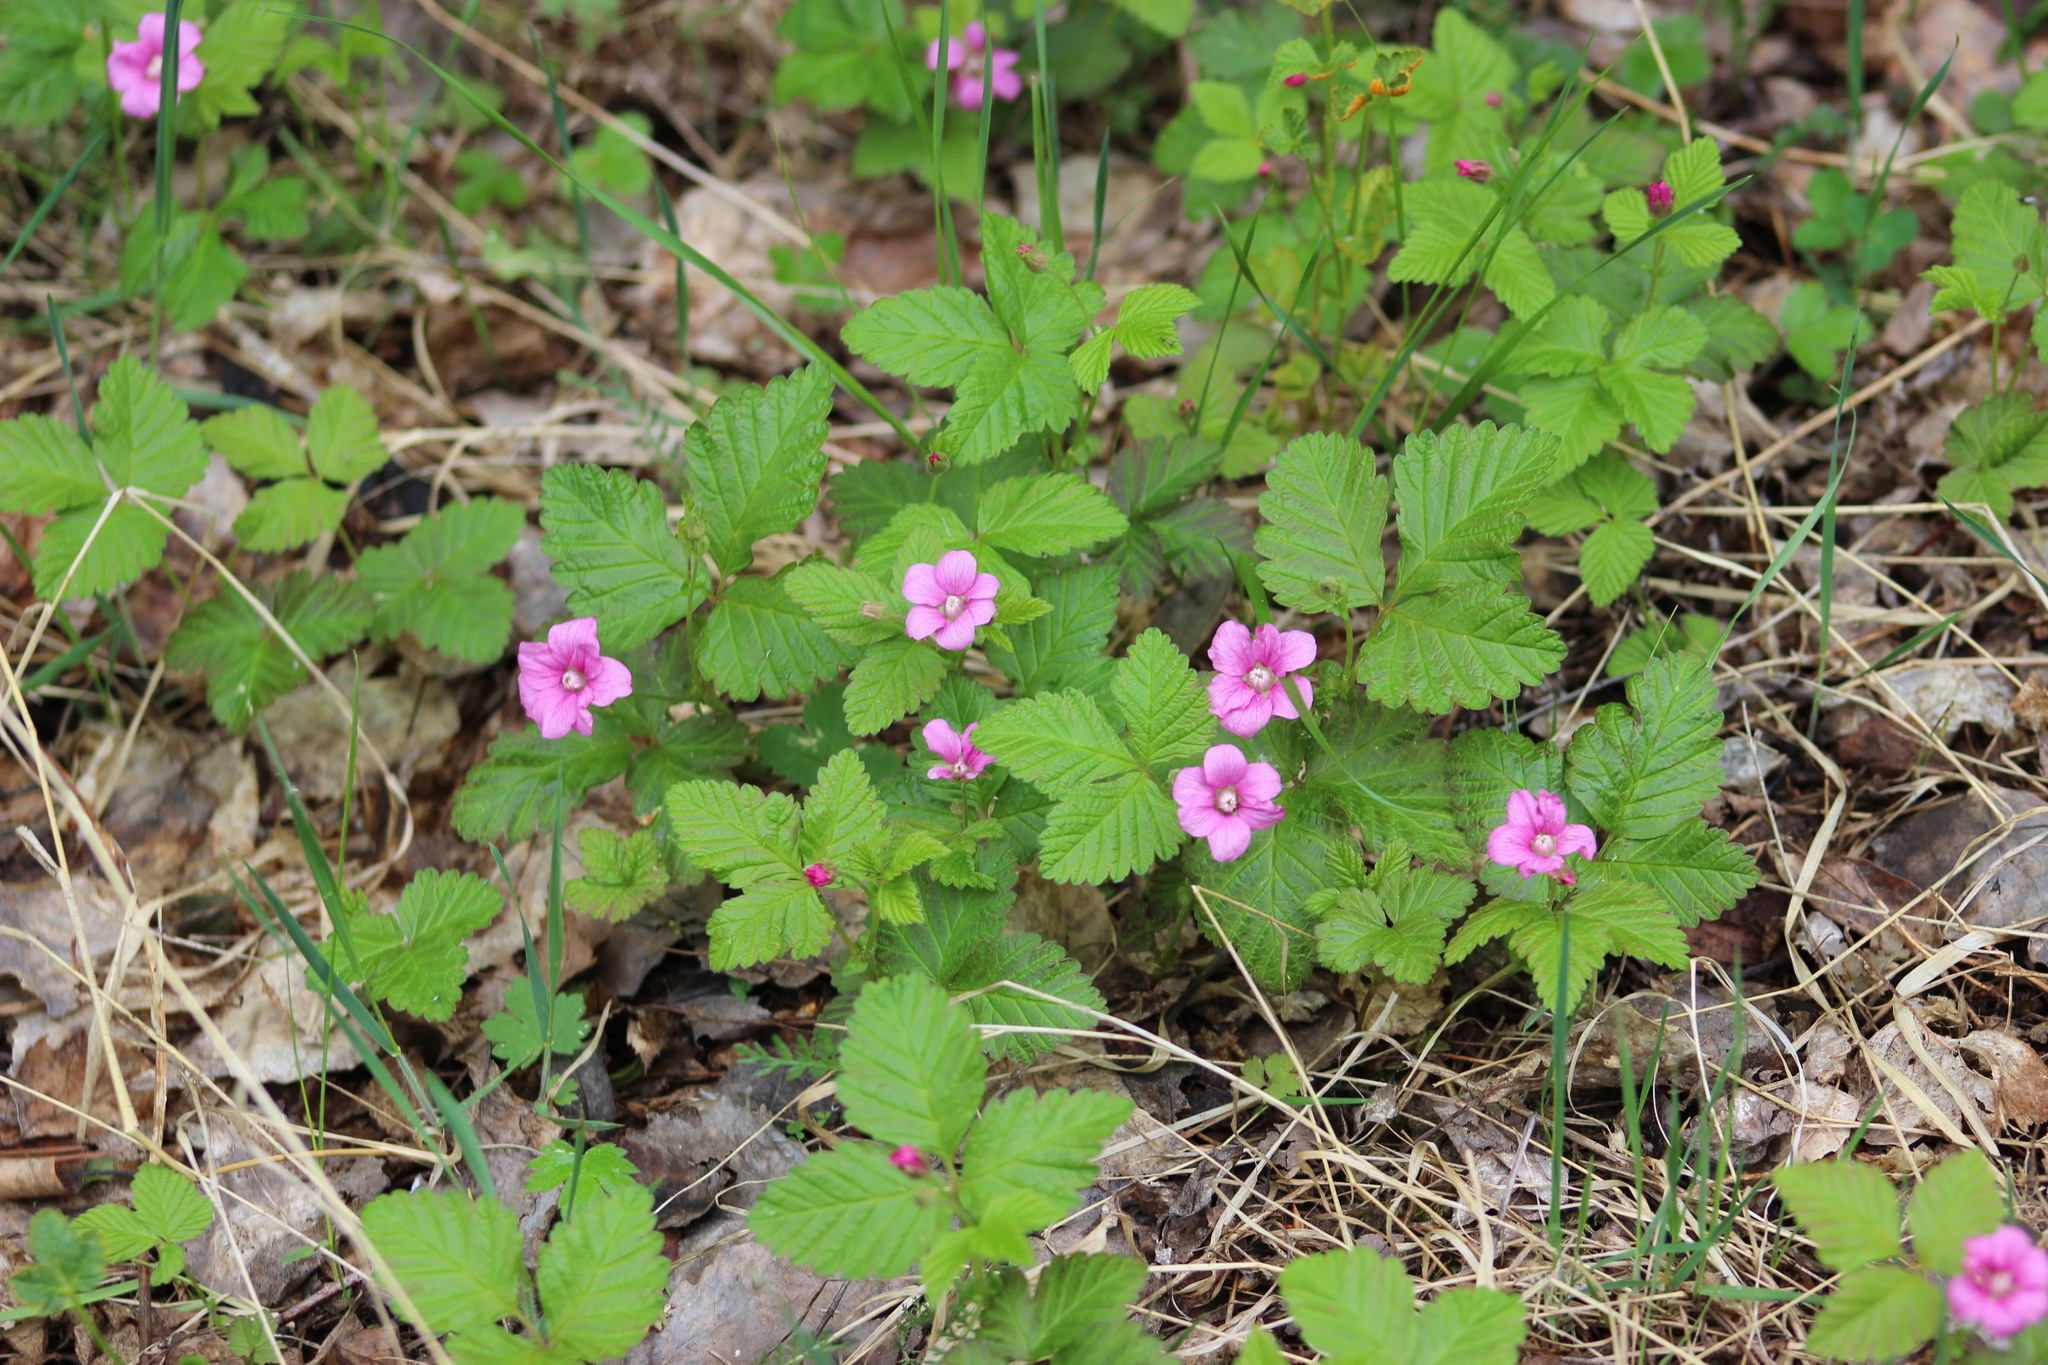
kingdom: Plantae
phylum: Tracheophyta
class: Magnoliopsida
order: Rosales
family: Rosaceae
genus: Rubus
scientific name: Rubus arcticus
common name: Arctic bramble
